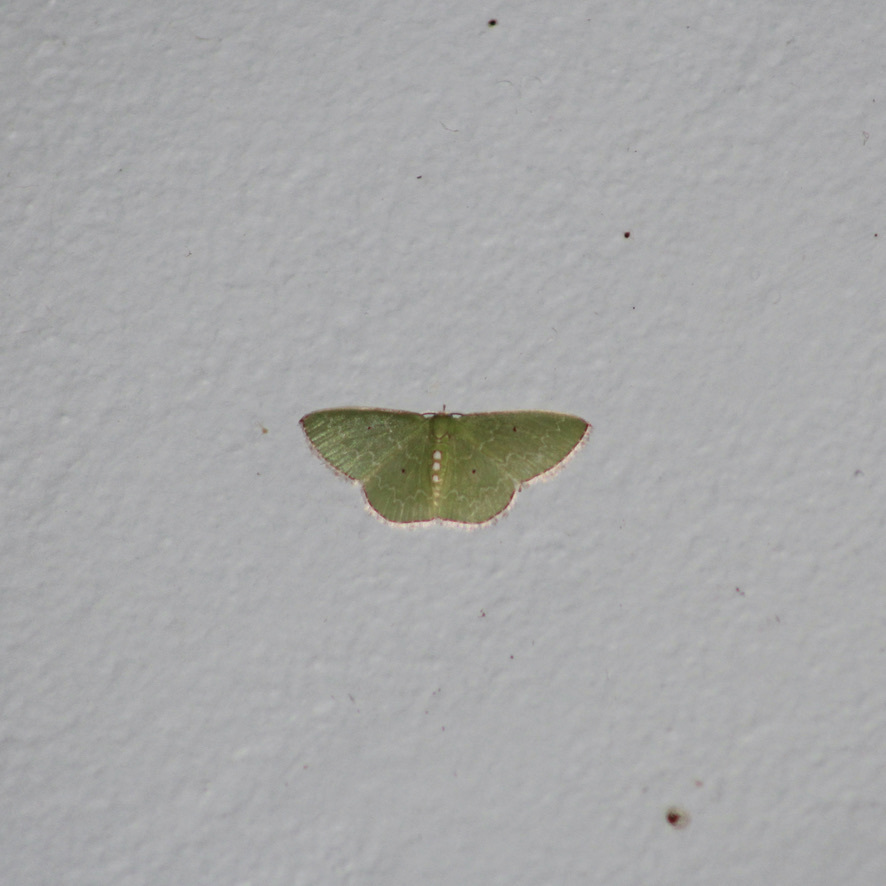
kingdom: Animalia
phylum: Arthropoda
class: Insecta
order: Lepidoptera
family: Geometridae
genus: Synchlora
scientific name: Synchlora rufilineata
